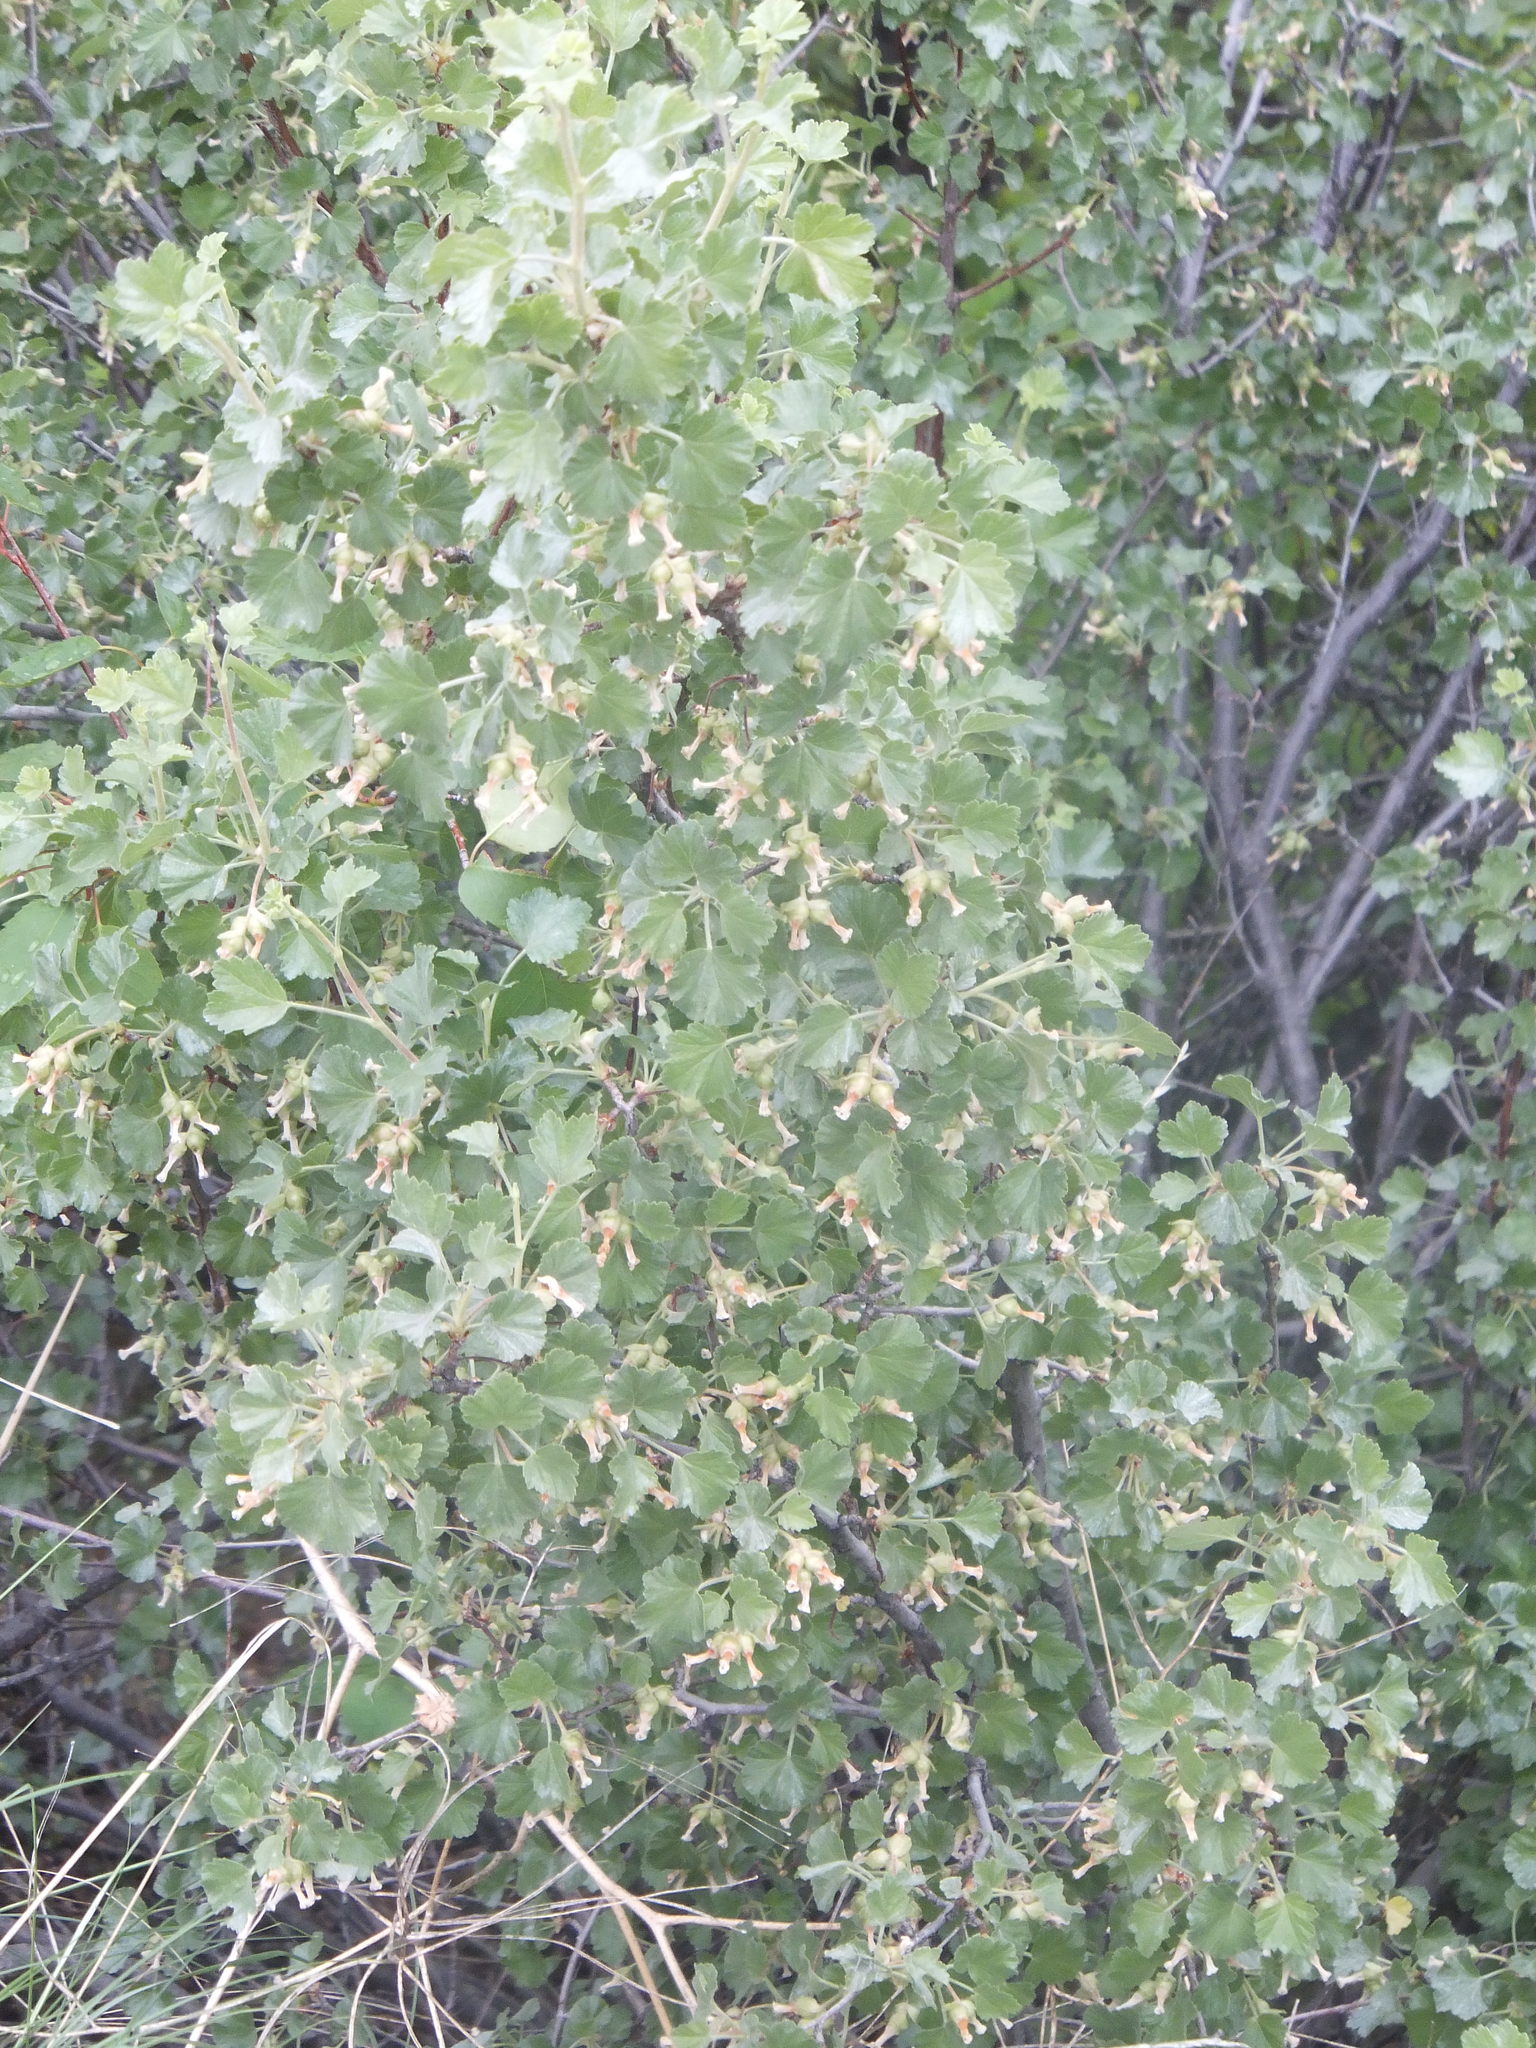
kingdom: Plantae
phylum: Tracheophyta
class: Magnoliopsida
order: Saxifragales
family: Grossulariaceae
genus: Ribes
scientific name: Ribes cereum
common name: Wax currant
